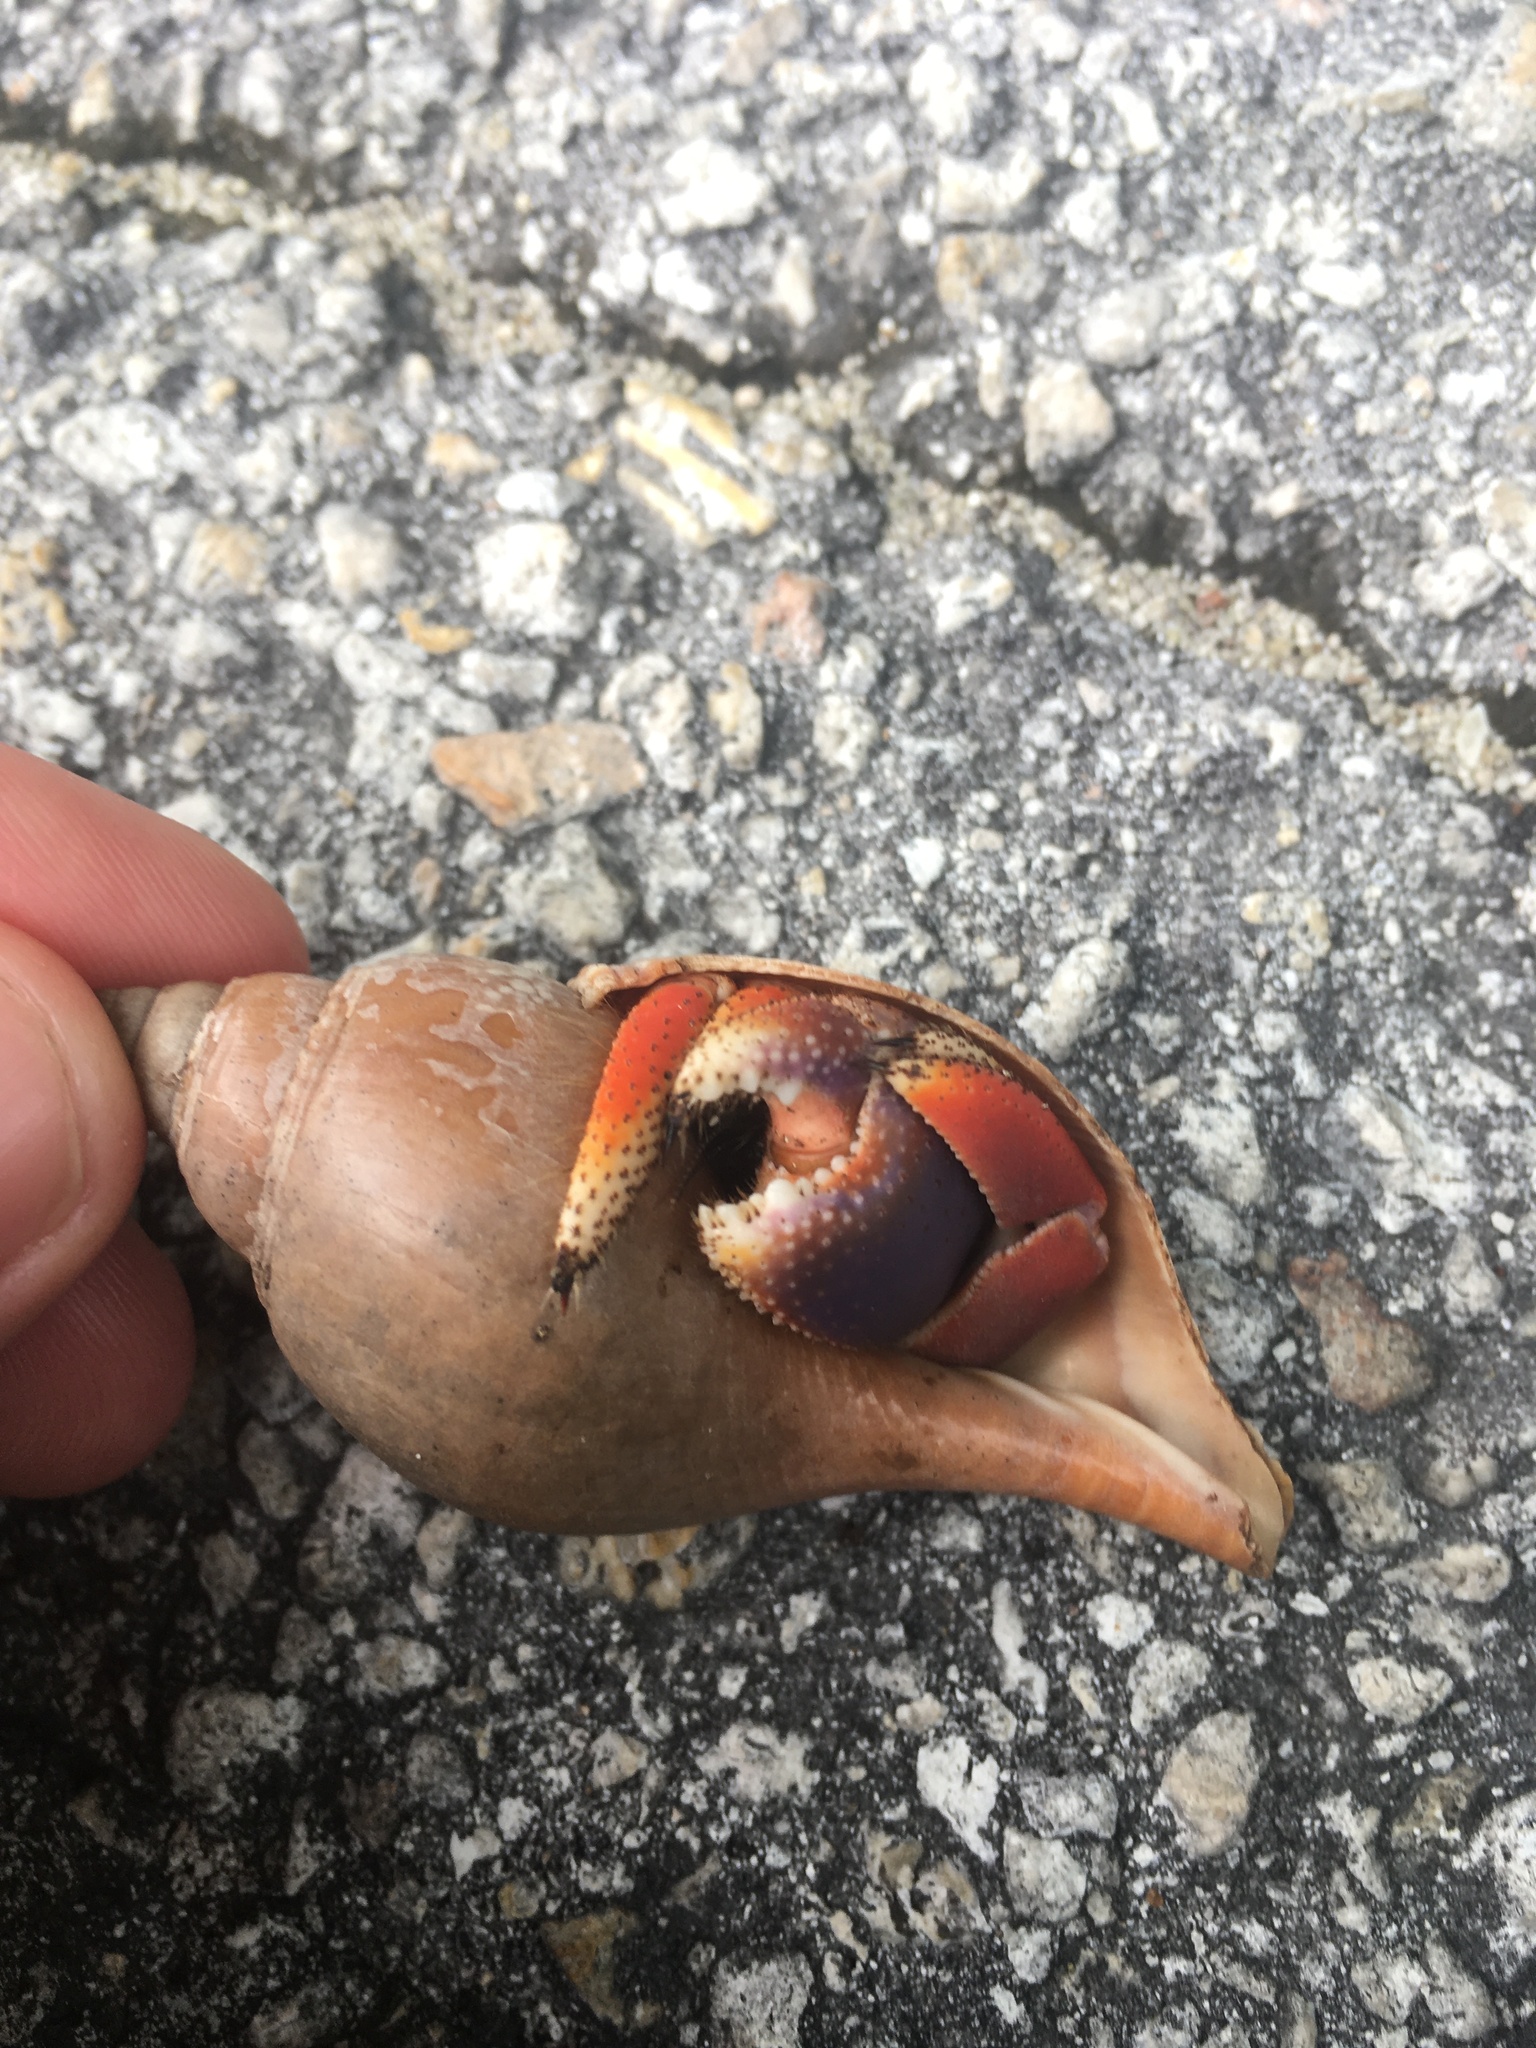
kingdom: Animalia
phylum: Arthropoda
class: Malacostraca
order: Decapoda
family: Coenobitidae
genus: Coenobita
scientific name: Coenobita clypeatus
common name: Caribbean hermit crab
